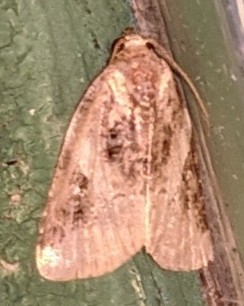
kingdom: Animalia
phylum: Arthropoda
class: Insecta
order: Lepidoptera
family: Noctuidae
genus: Pseudeustrotia
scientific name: Pseudeustrotia carneola
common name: Pink-barred lithacodia moth
